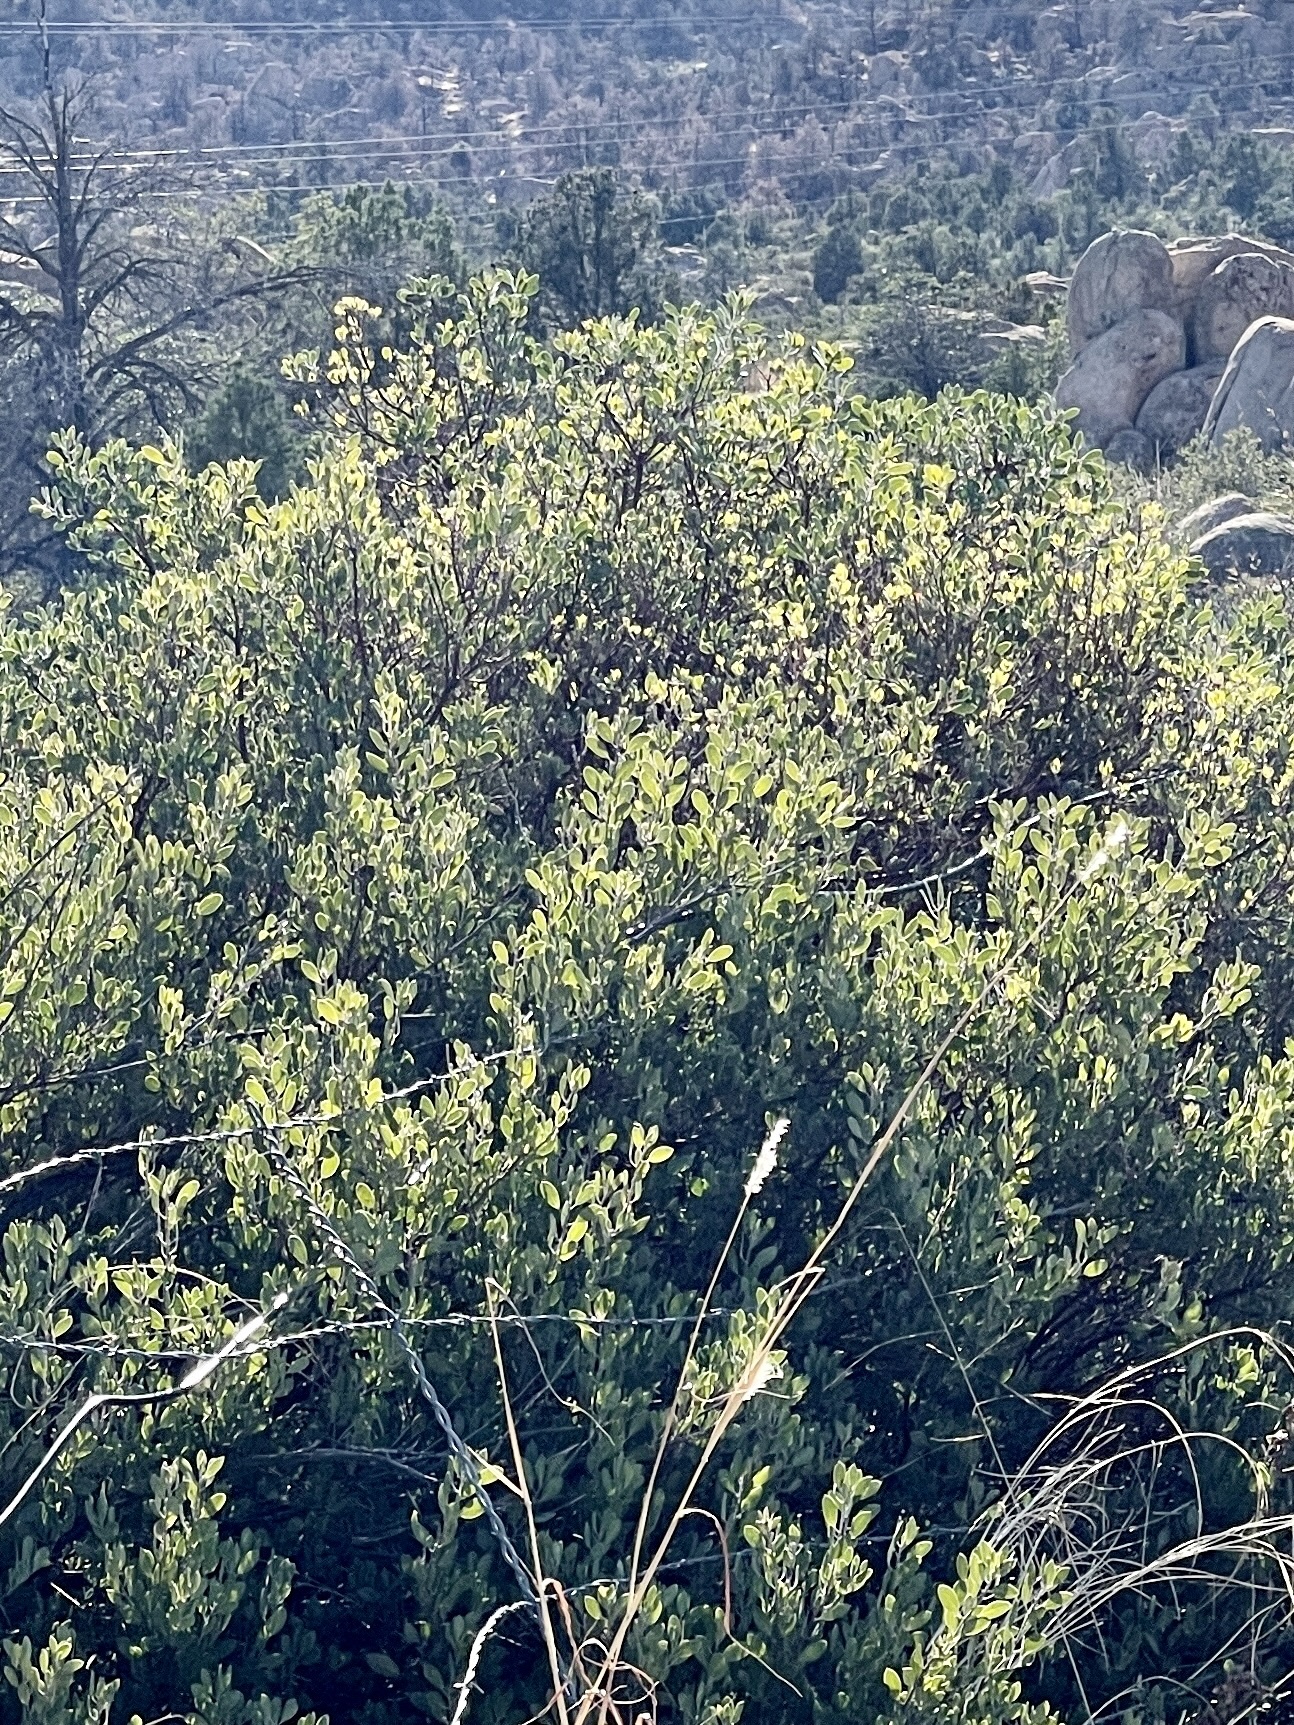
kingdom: Plantae
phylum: Tracheophyta
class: Magnoliopsida
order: Ericales
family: Ericaceae
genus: Arctostaphylos
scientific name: Arctostaphylos pungens
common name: Mexican manzanita
